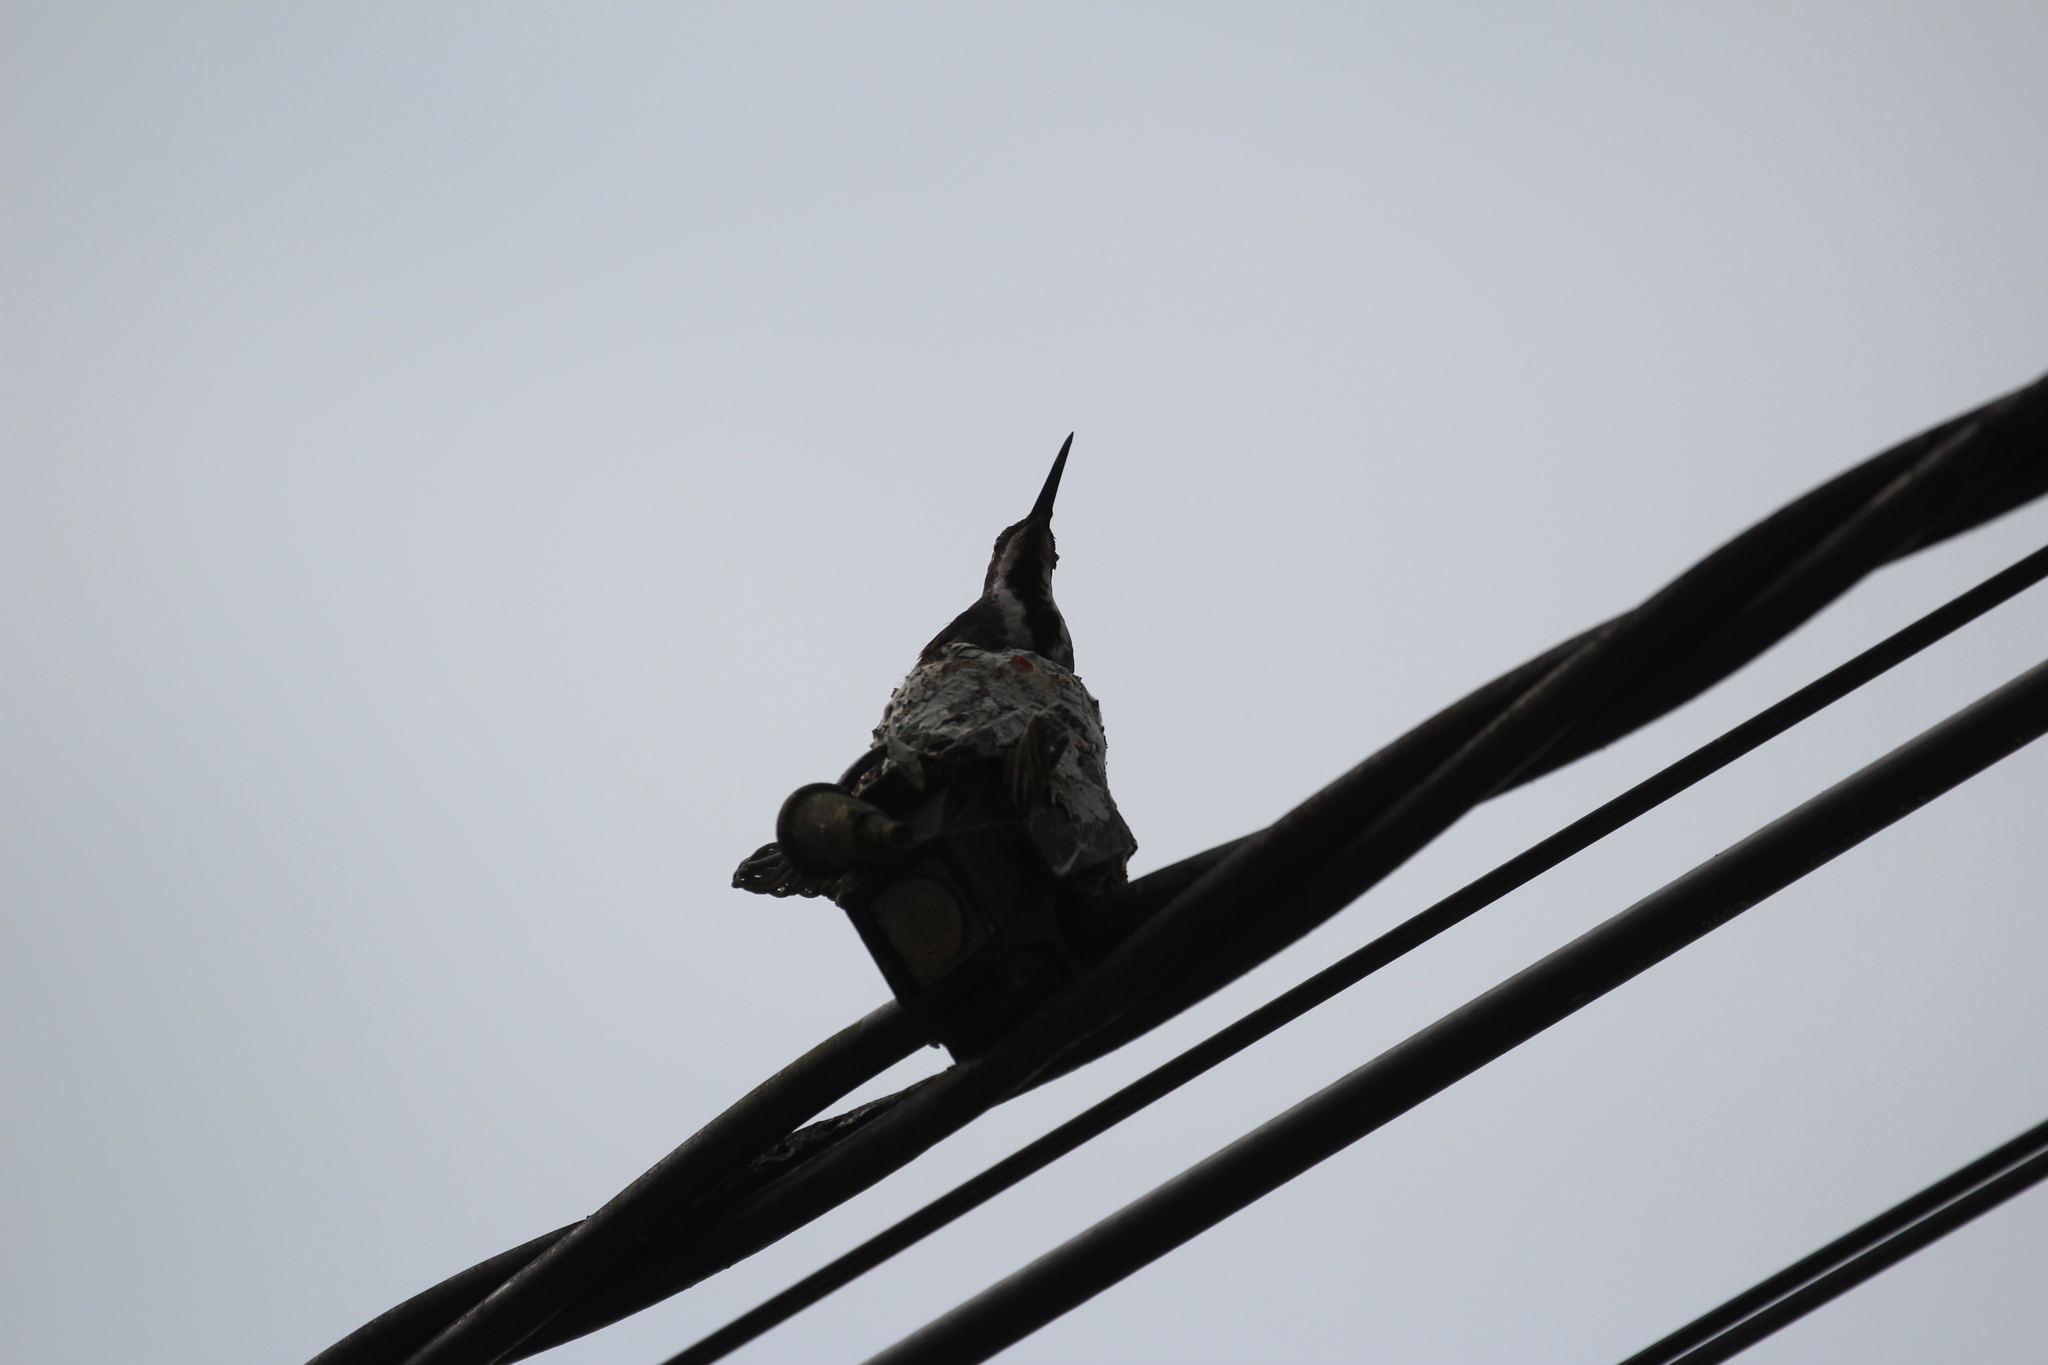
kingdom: Animalia
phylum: Chordata
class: Aves
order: Apodiformes
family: Trochilidae
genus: Anthracothorax
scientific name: Anthracothorax nigricollis
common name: Black-throated mango
